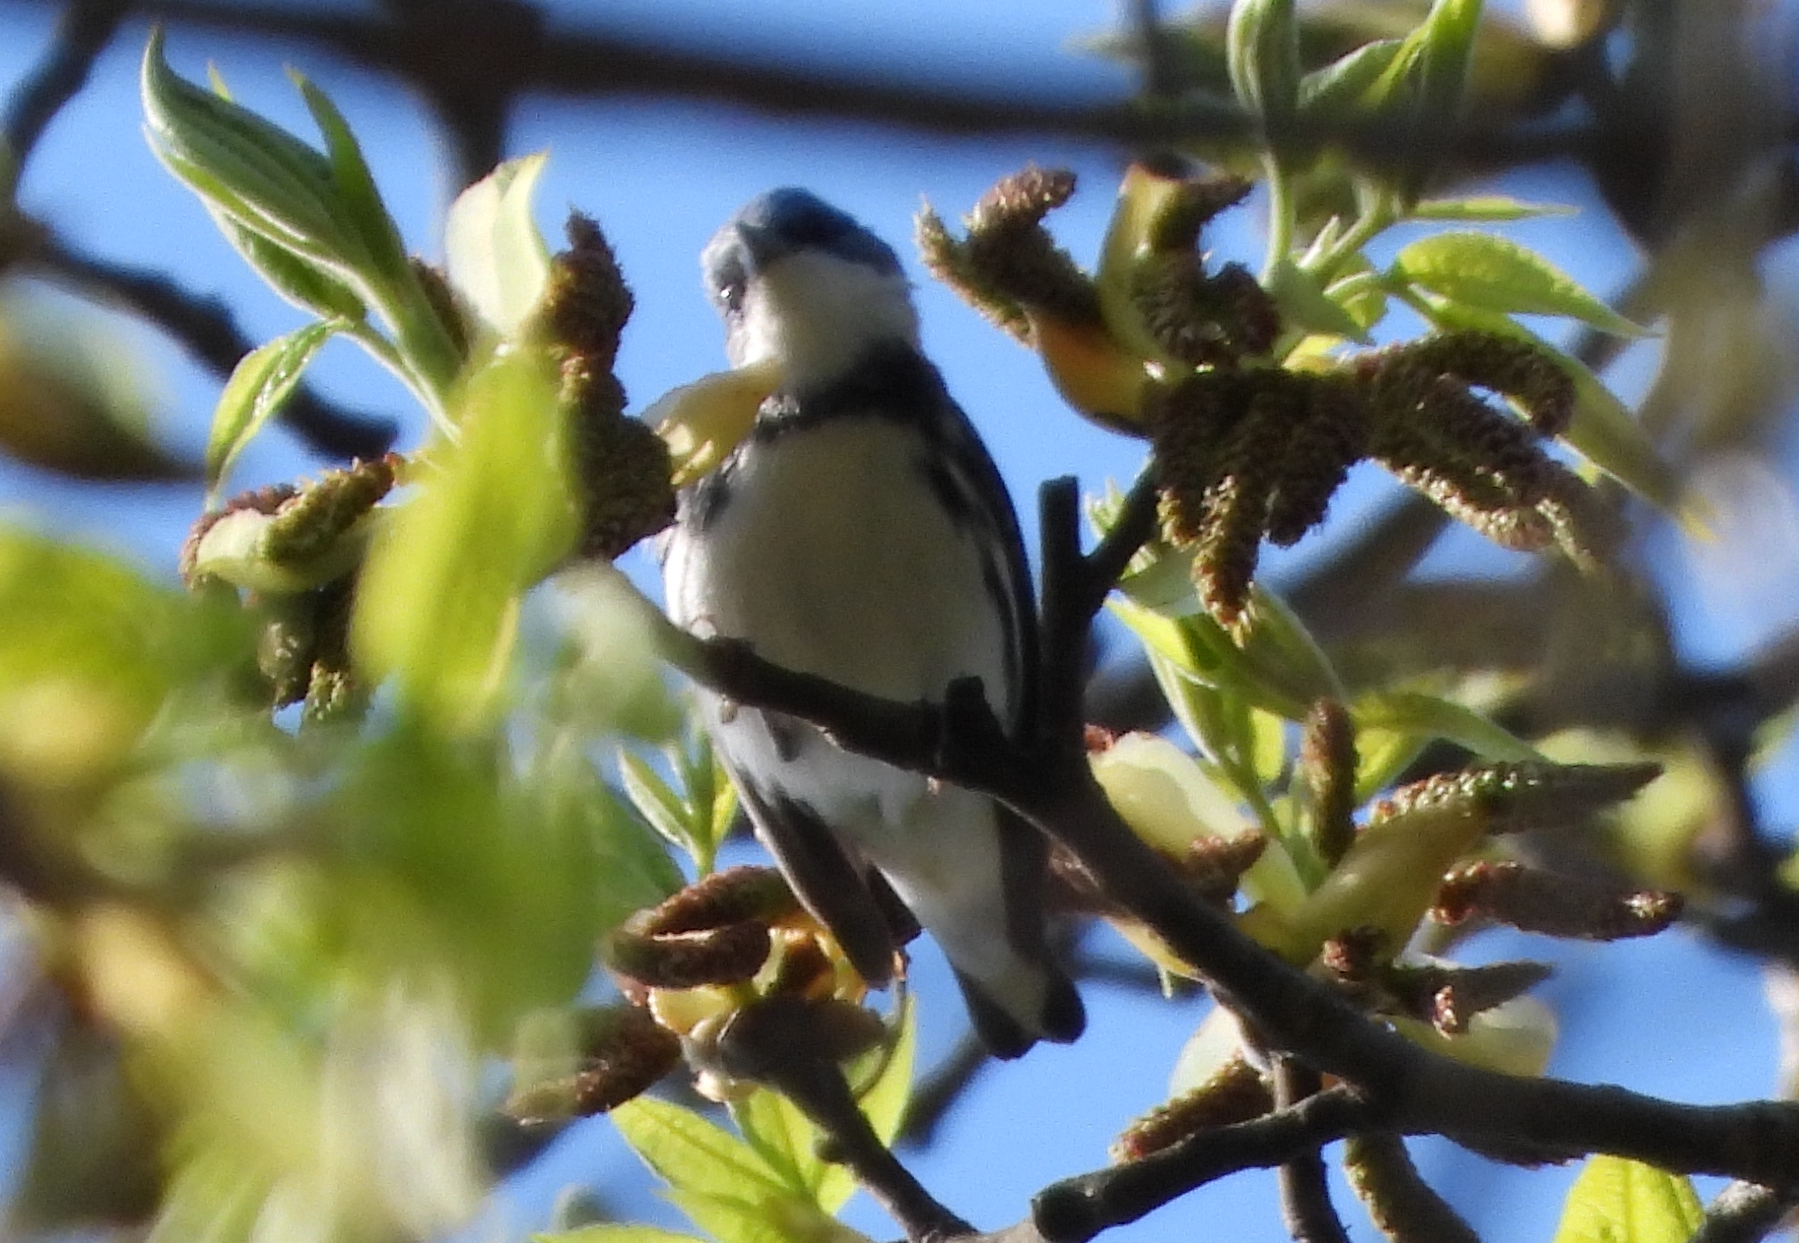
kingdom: Animalia
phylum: Chordata
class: Aves
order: Passeriformes
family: Parulidae
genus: Setophaga
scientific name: Setophaga cerulea
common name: Cerulean warbler
